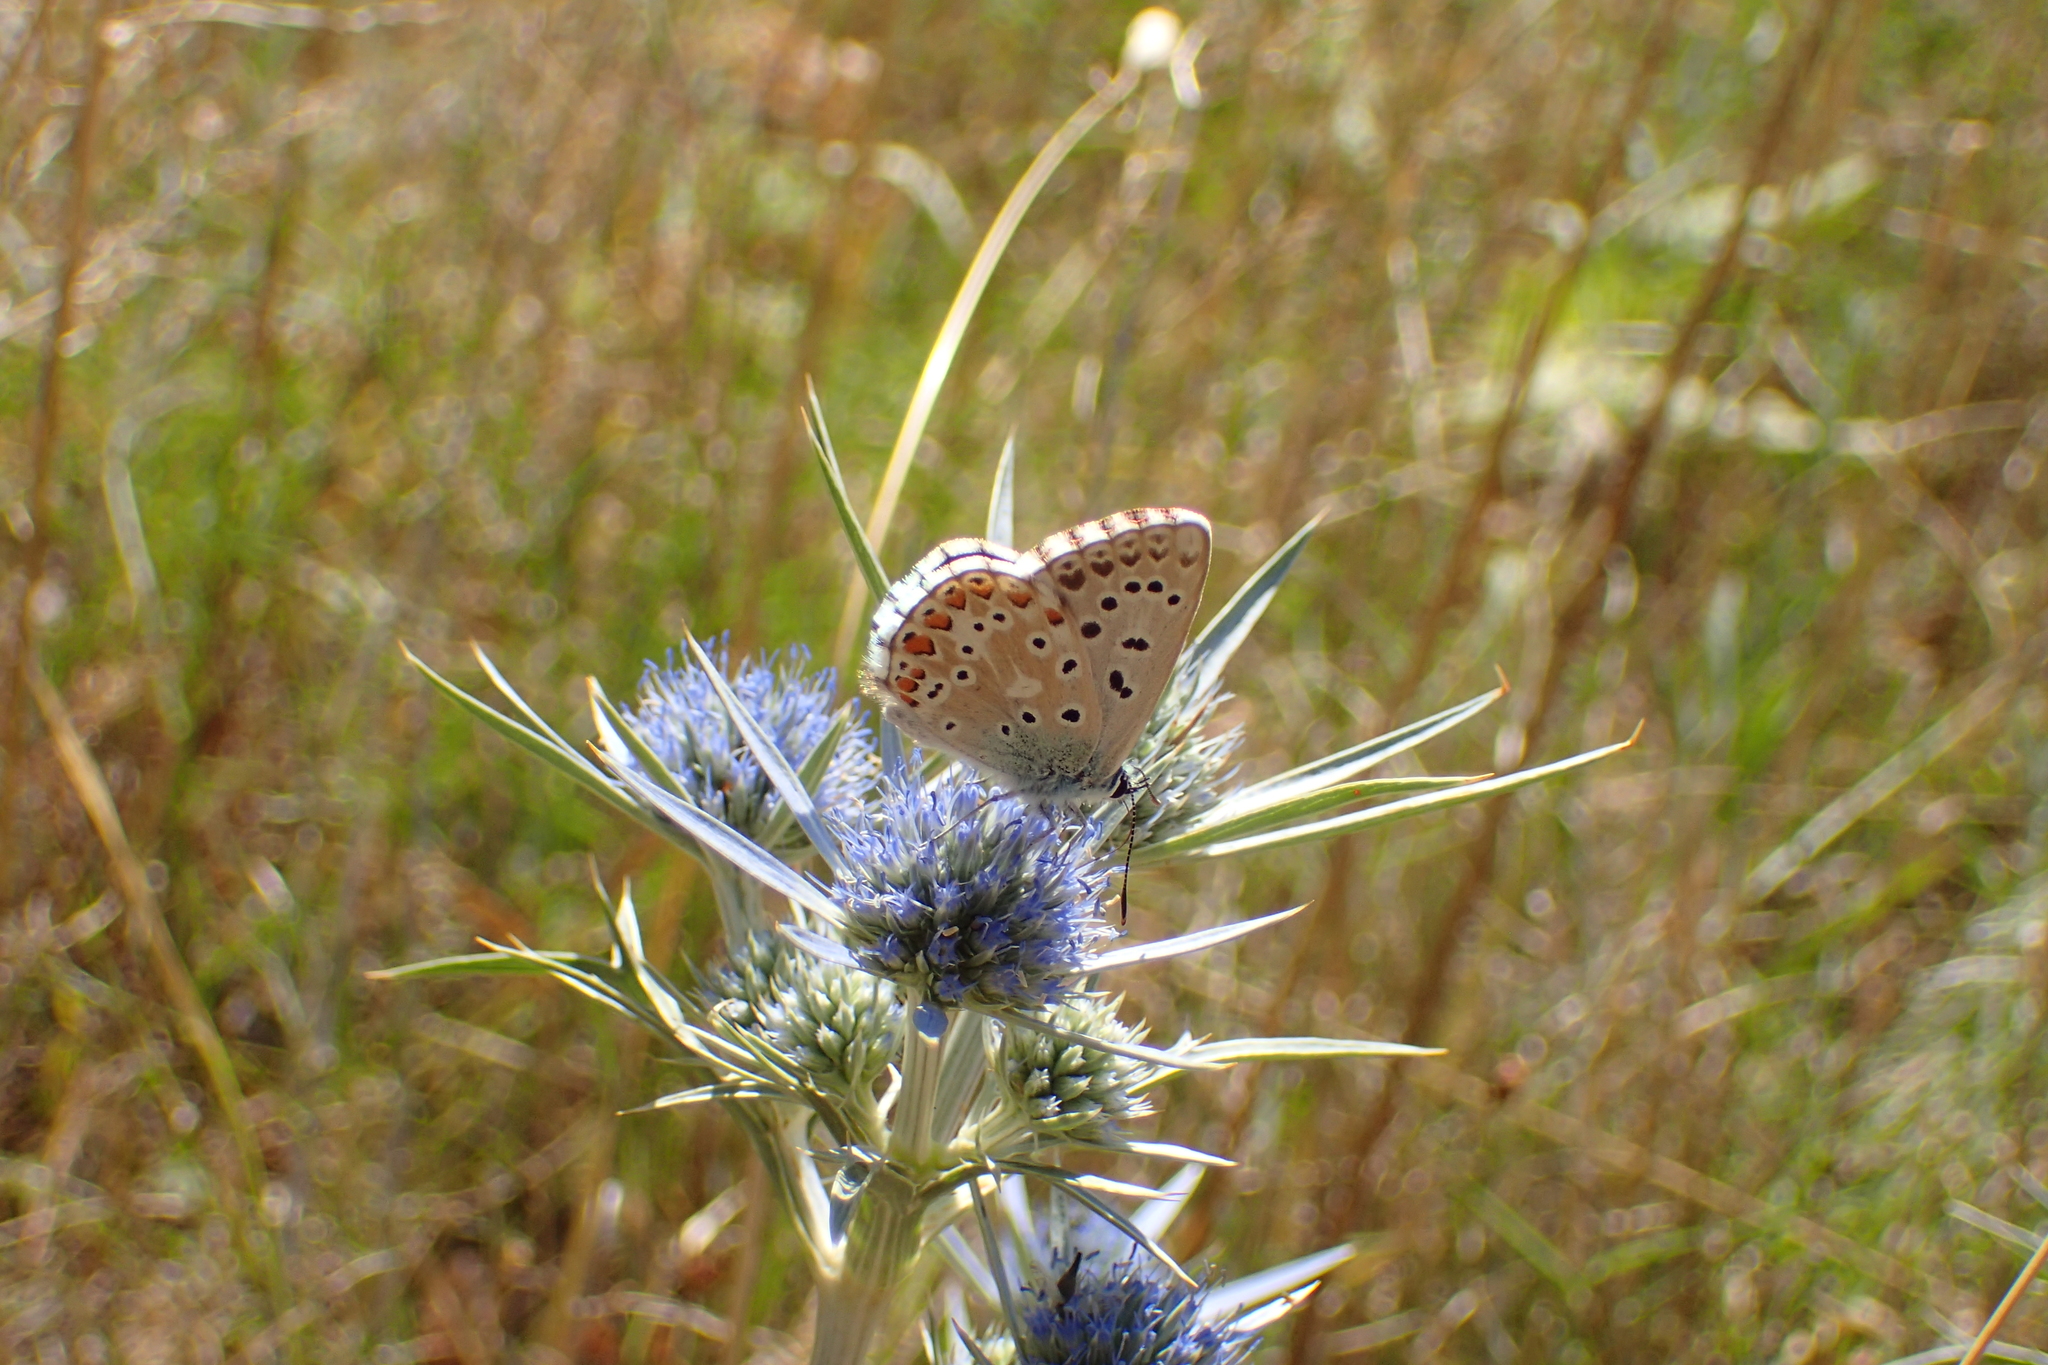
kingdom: Animalia
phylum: Arthropoda
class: Insecta
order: Lepidoptera
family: Lycaenidae
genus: Lysandra
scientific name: Lysandra bellargus
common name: Adonis blue
